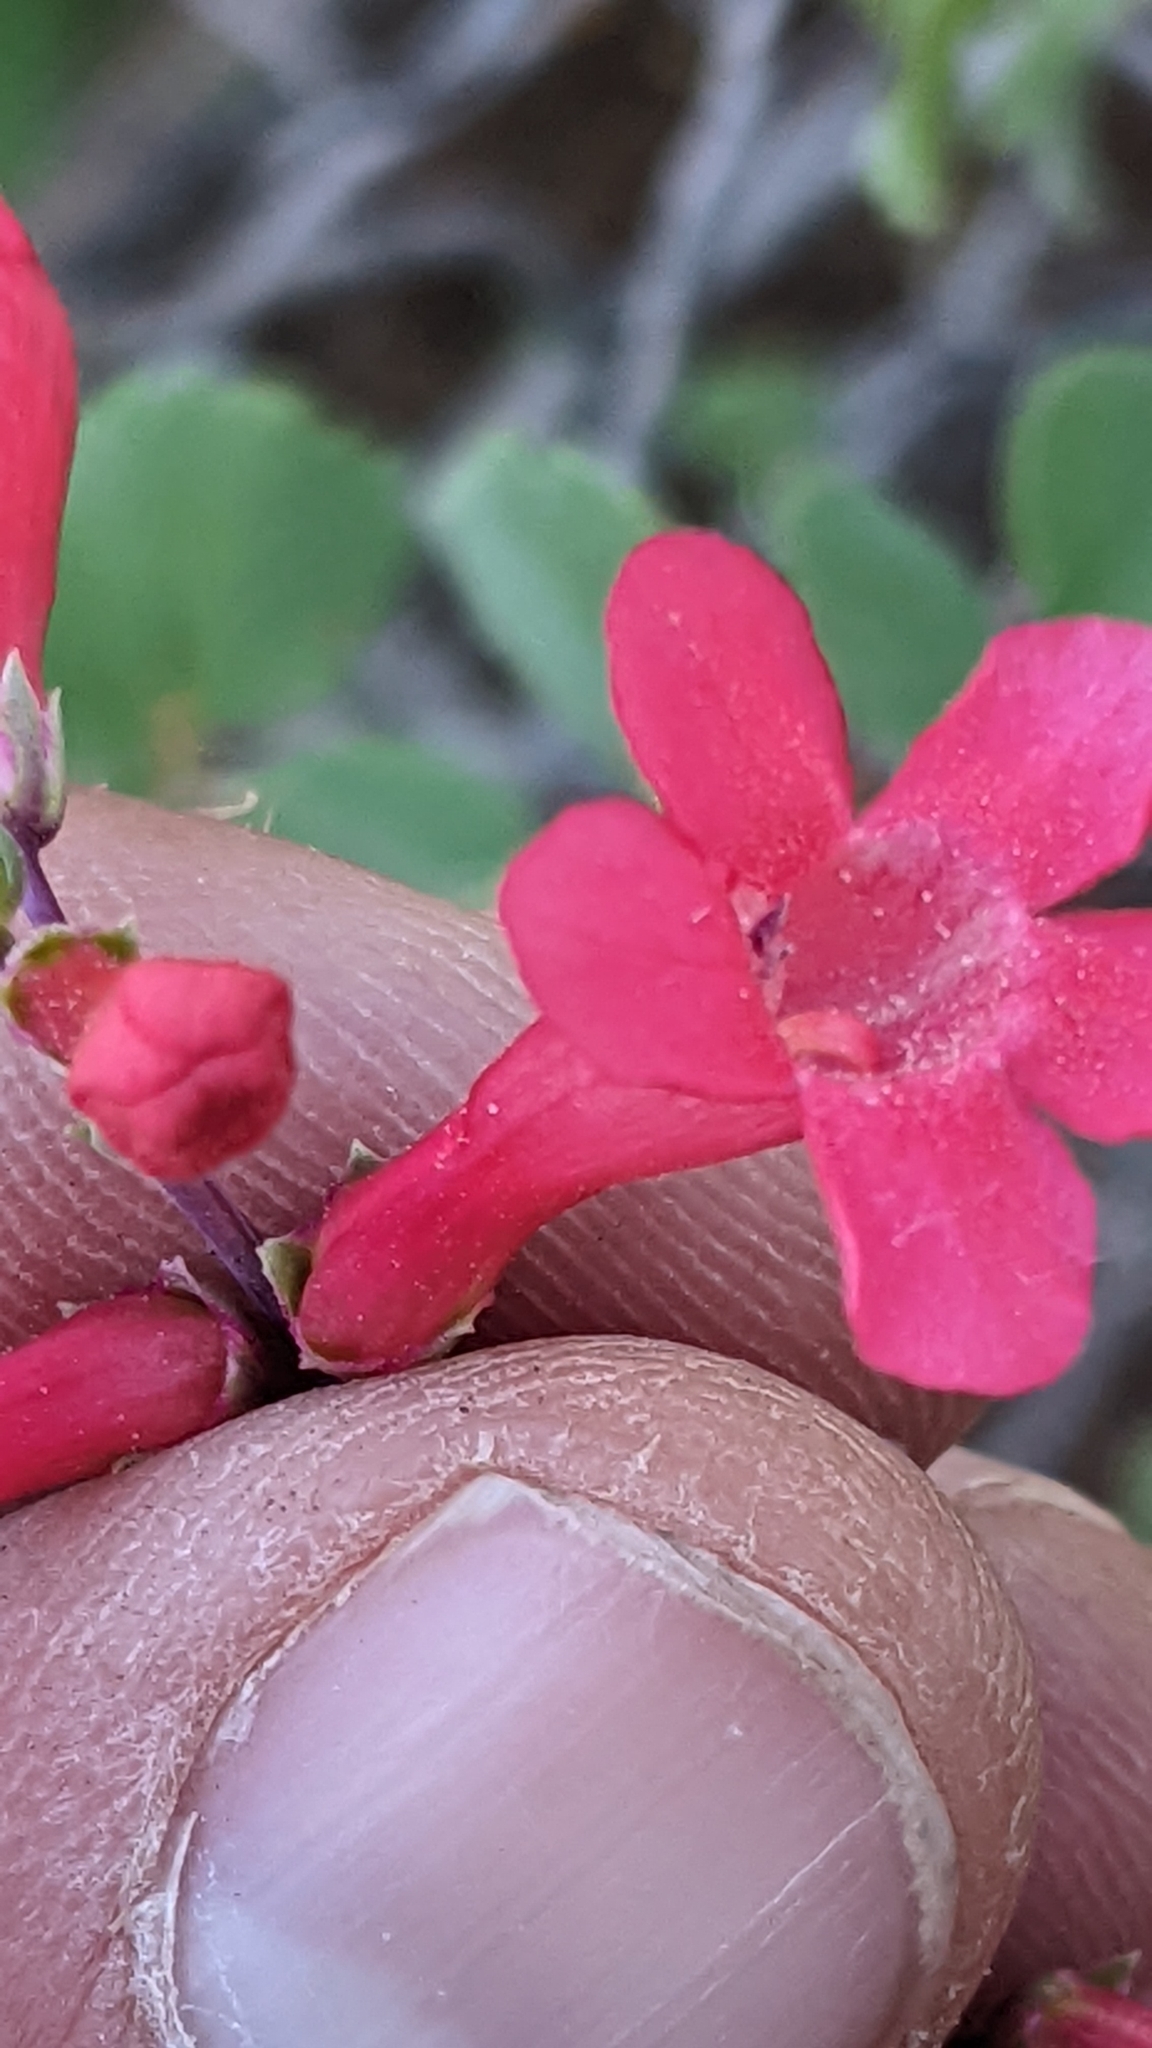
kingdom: Plantae
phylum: Tracheophyta
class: Magnoliopsida
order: Lamiales
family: Plantaginaceae
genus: Penstemon
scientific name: Penstemon utahensis
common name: Utah penstemon
